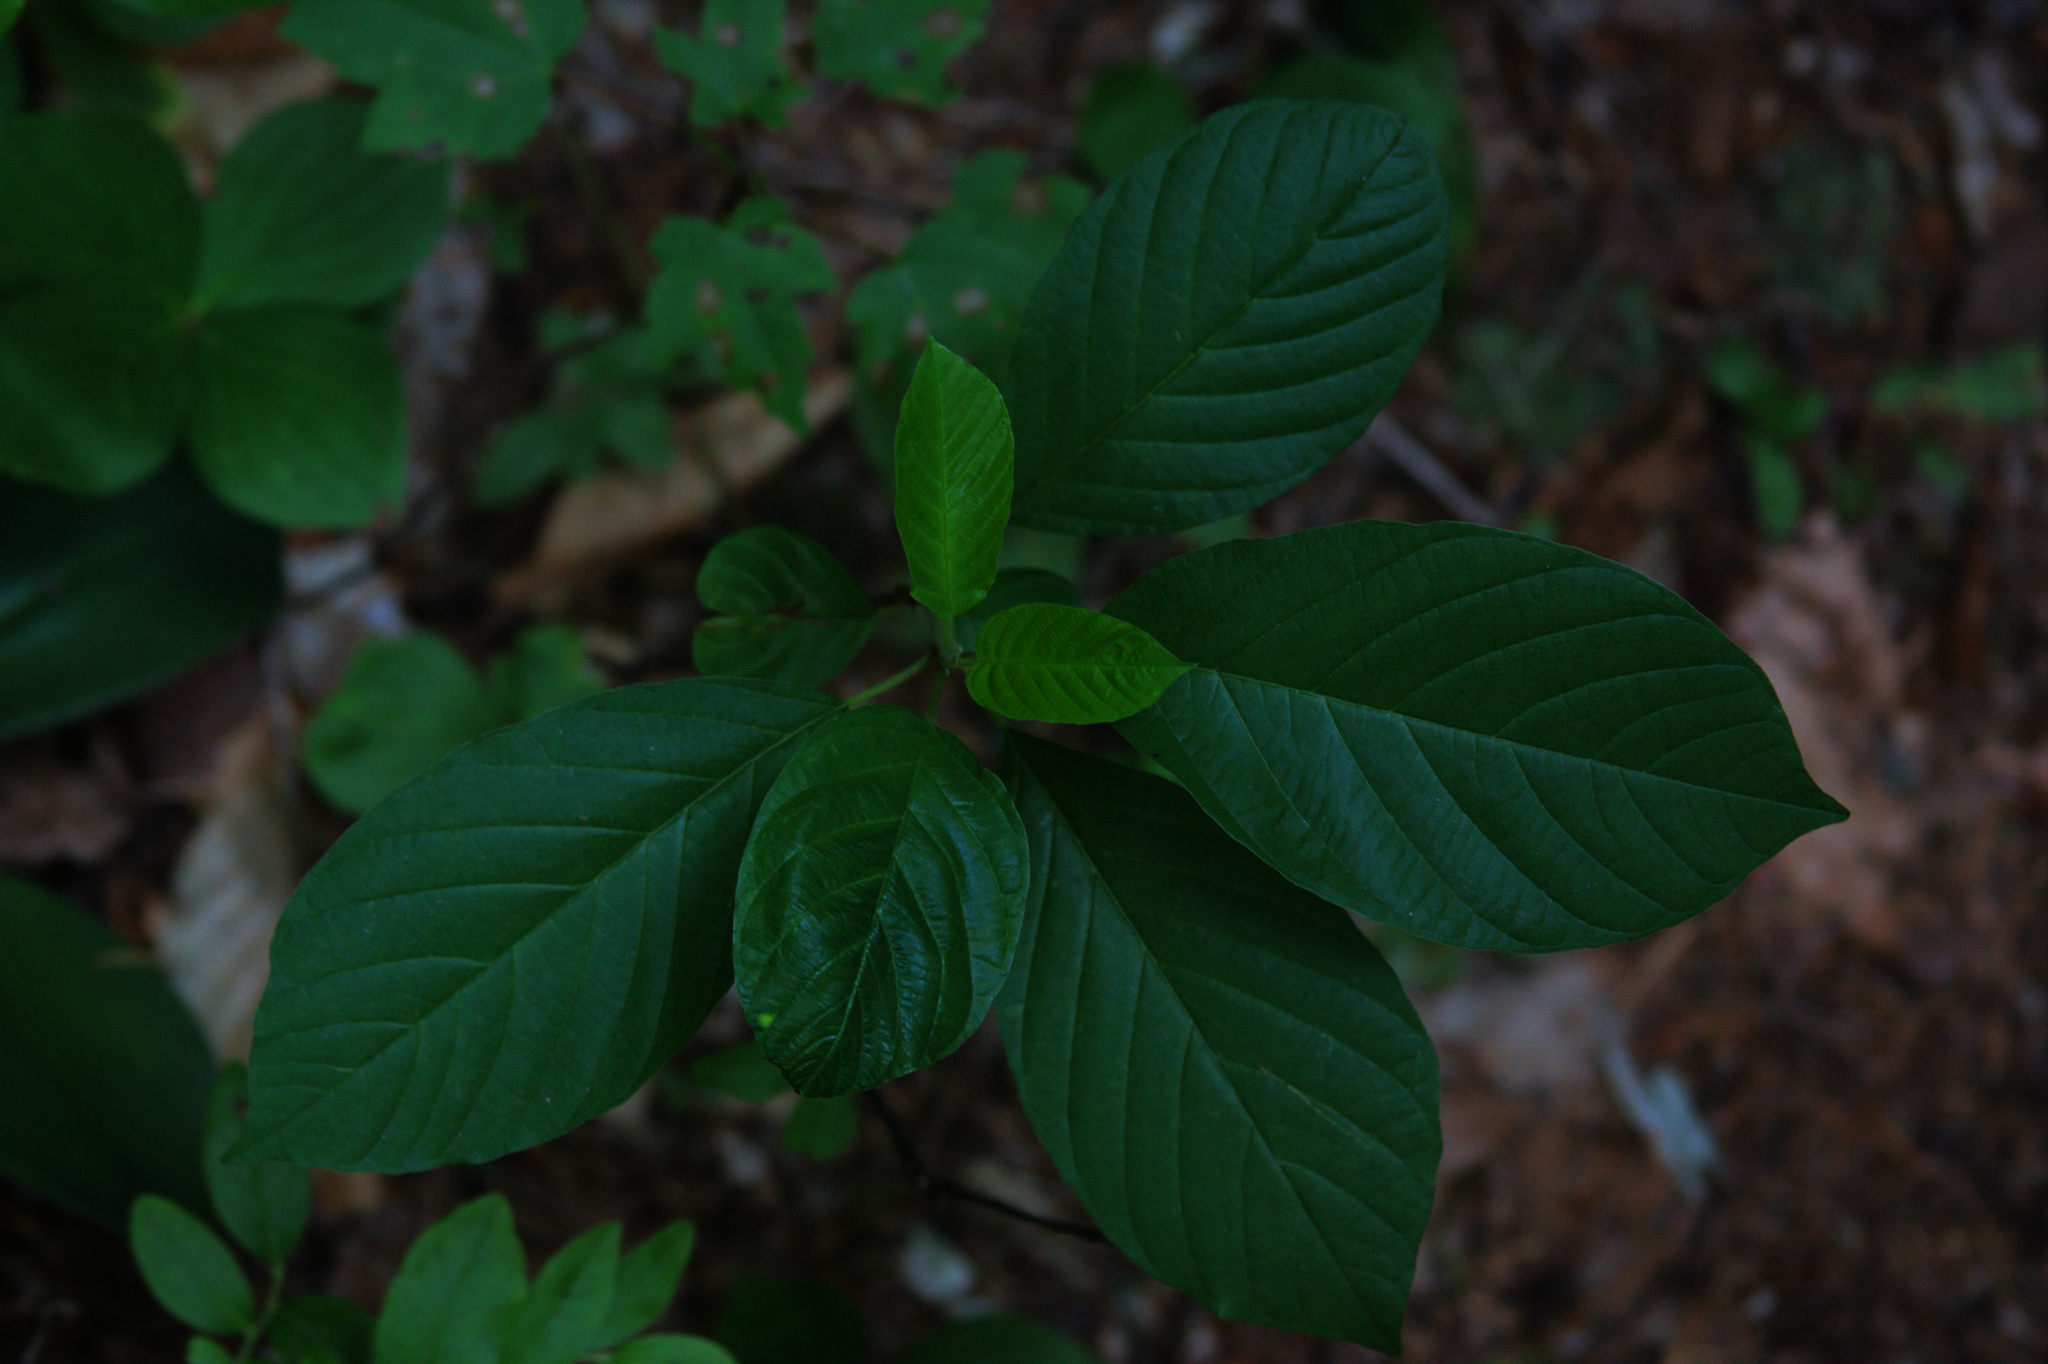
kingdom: Plantae
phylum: Tracheophyta
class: Magnoliopsida
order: Rosales
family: Rhamnaceae
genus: Frangula
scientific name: Frangula alnus
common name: Alder buckthorn
